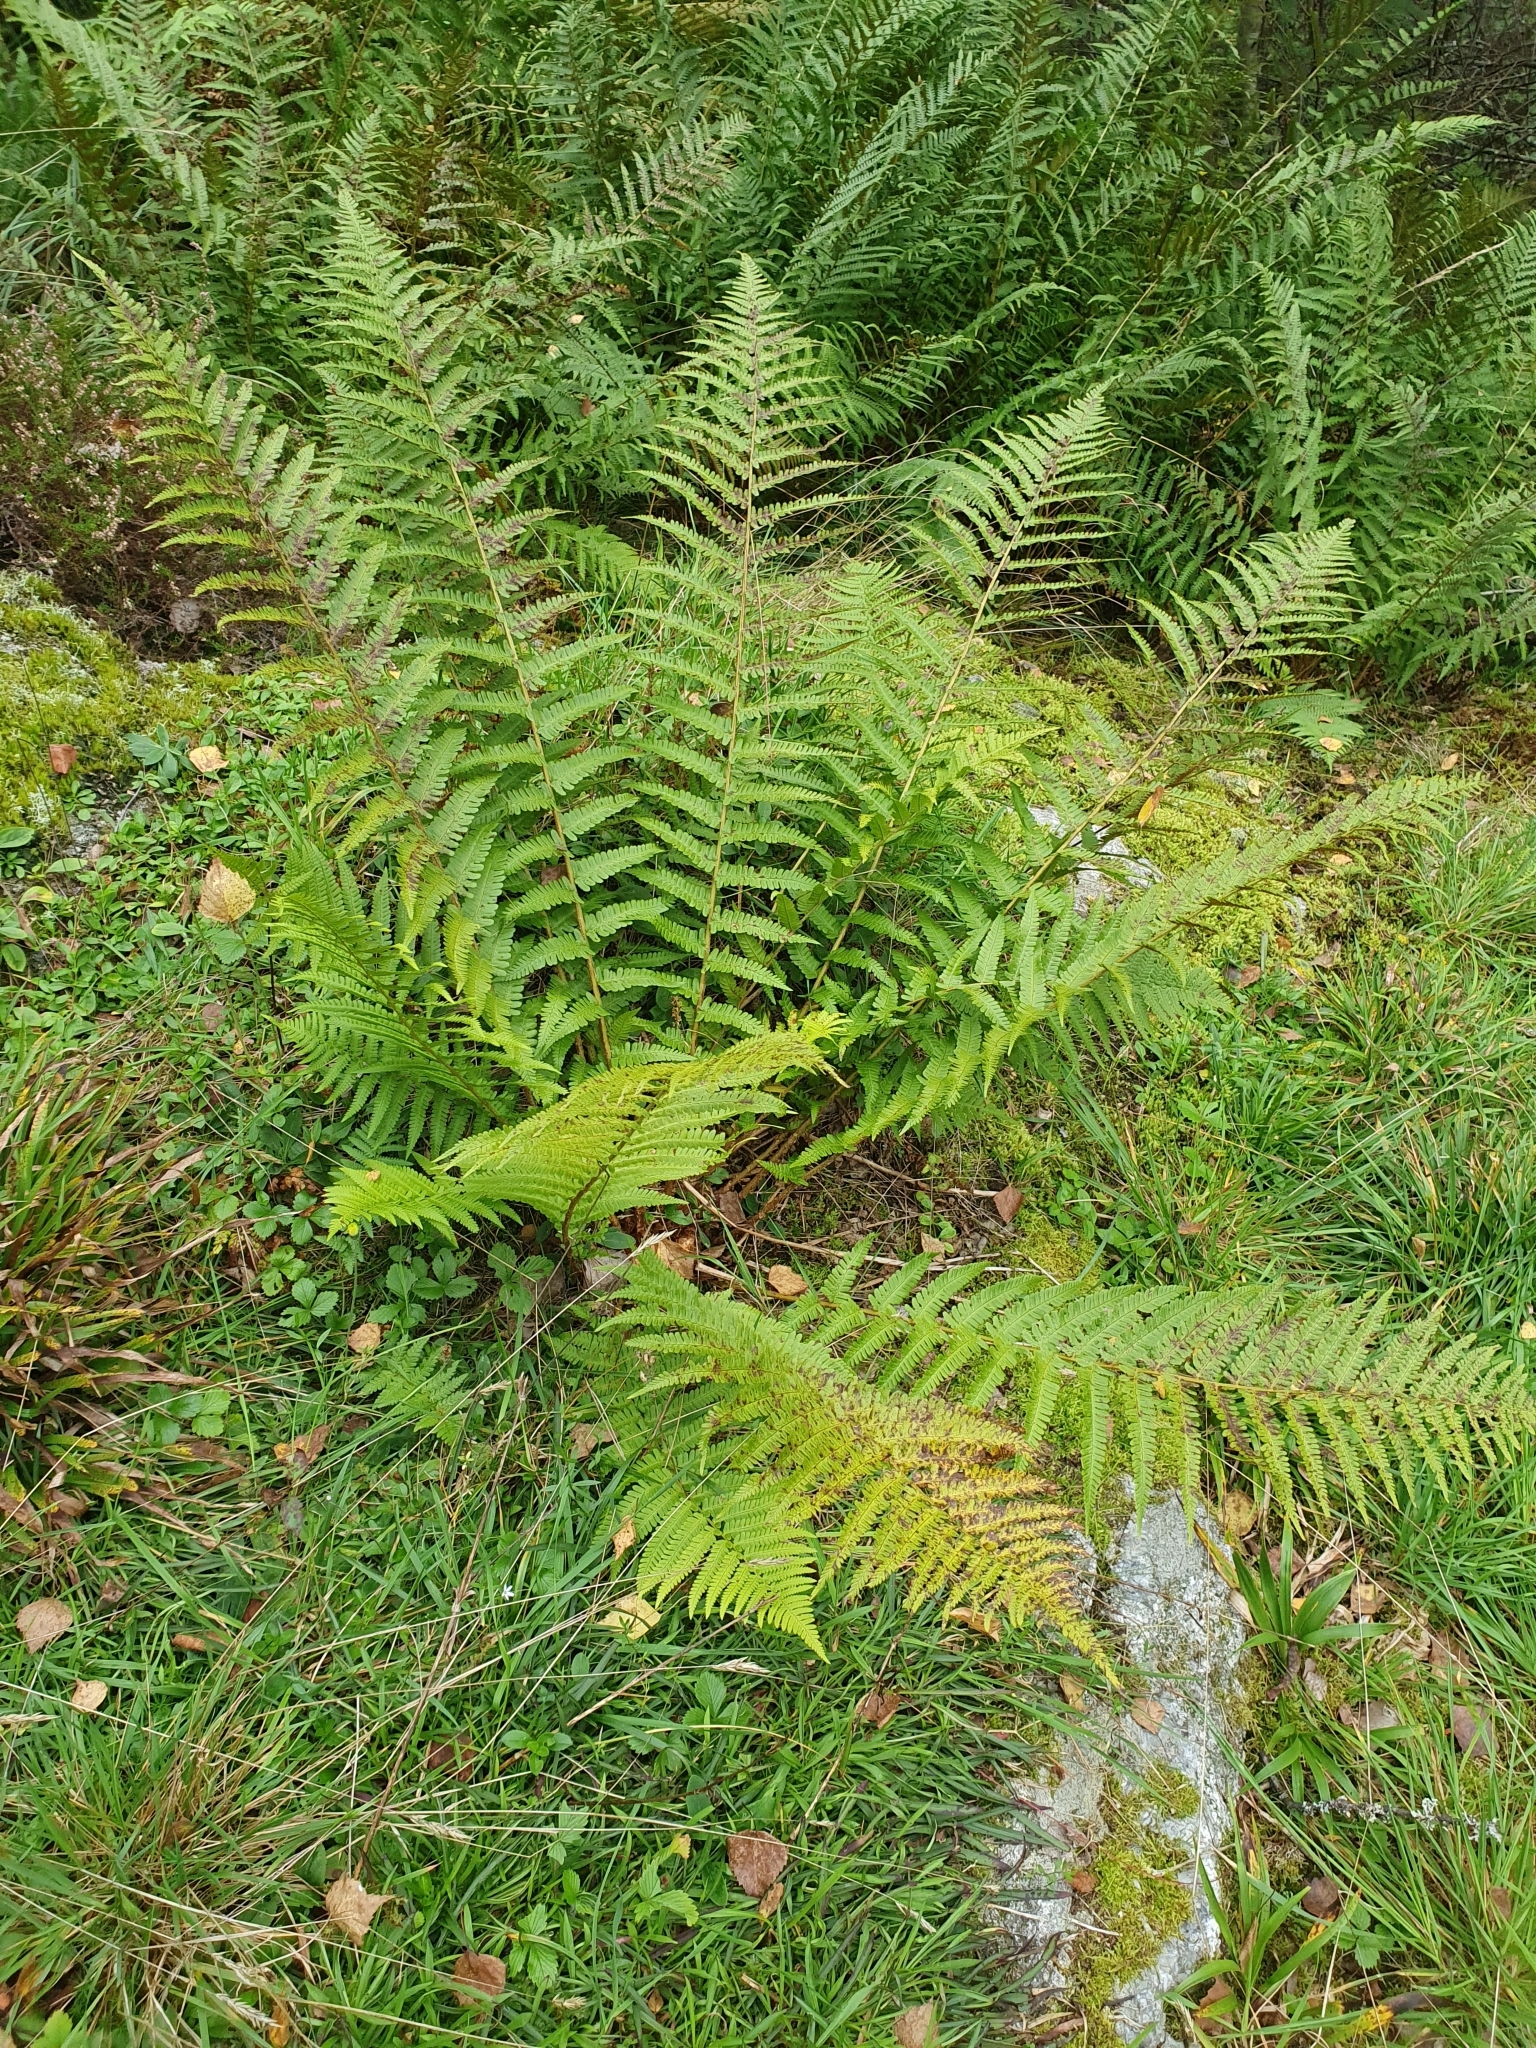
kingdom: Plantae
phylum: Tracheophyta
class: Polypodiopsida
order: Polypodiales
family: Dryopteridaceae
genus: Dryopteris
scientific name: Dryopteris filix-mas
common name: Male fern
